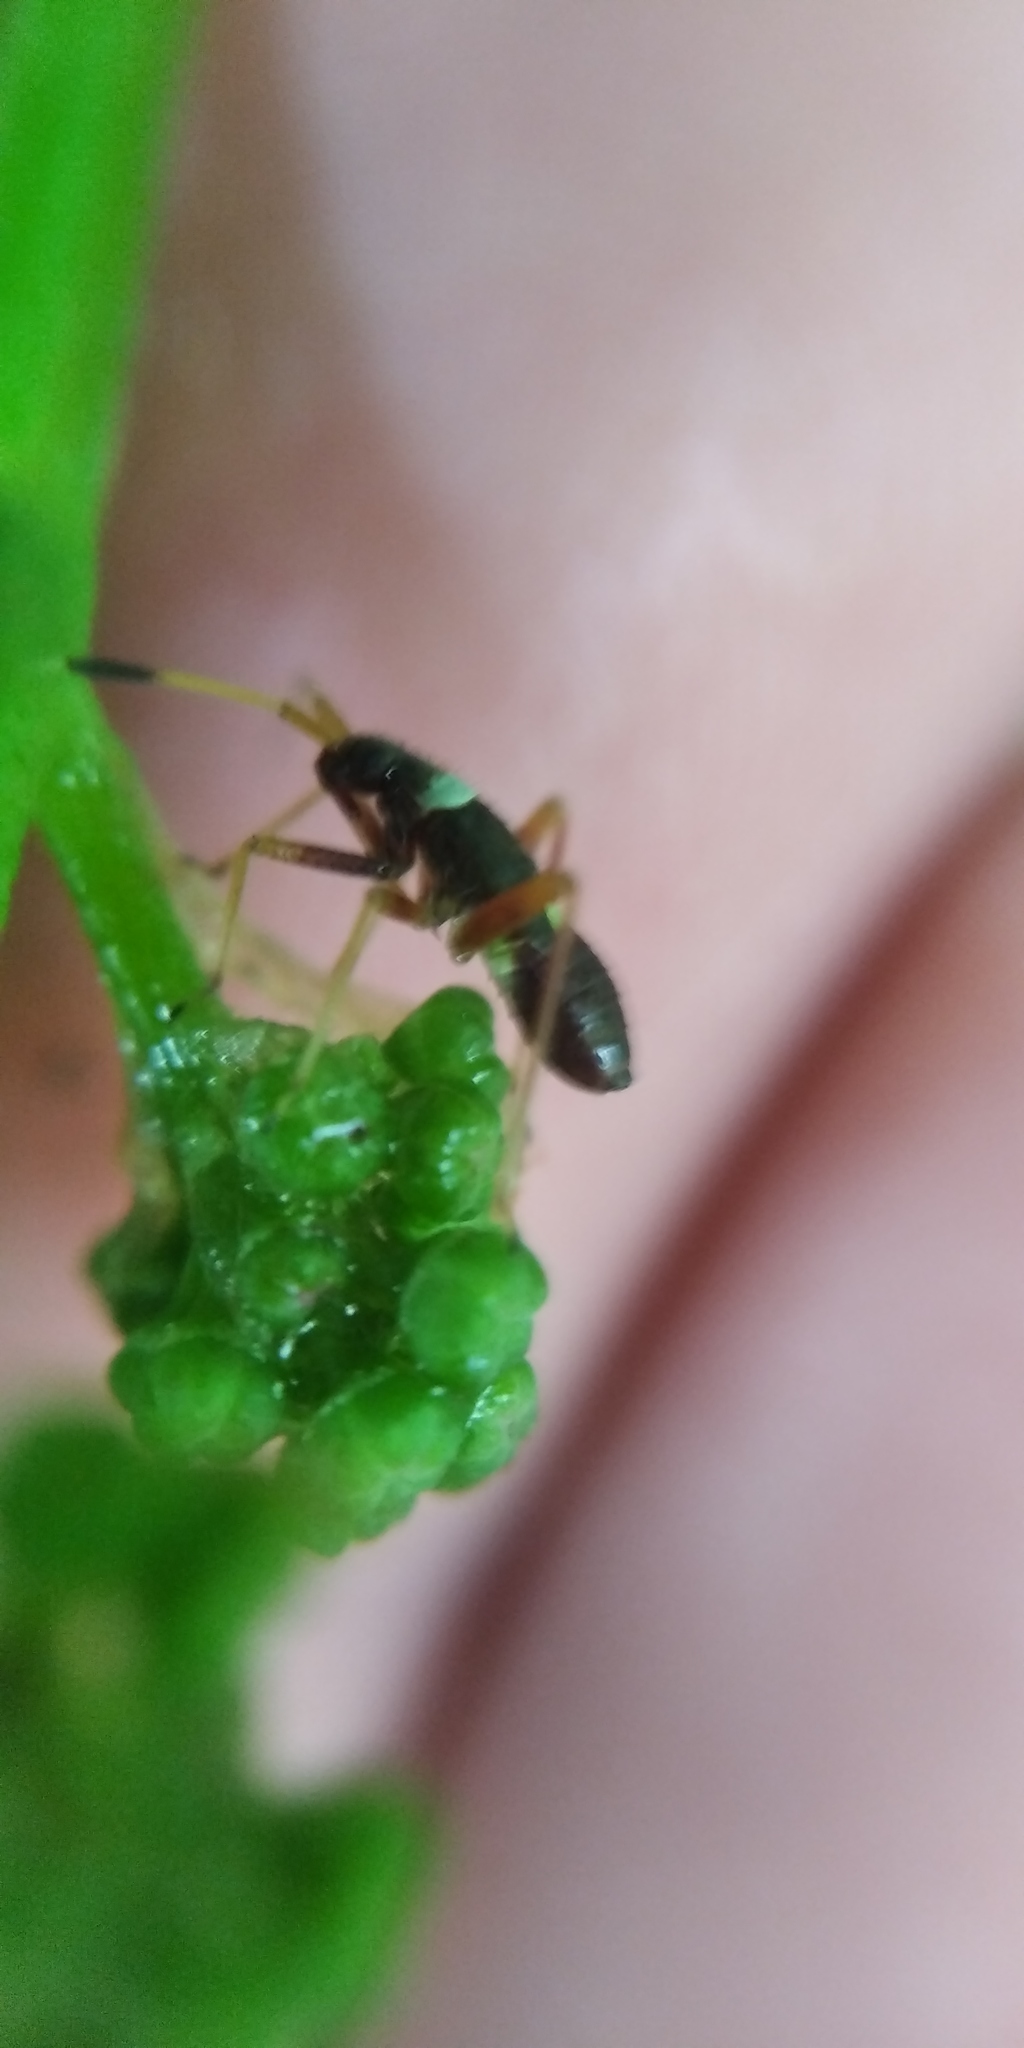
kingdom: Animalia
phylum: Arthropoda
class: Insecta
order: Hemiptera
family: Miridae
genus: Closterotomus
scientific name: Closterotomus biclavatus
